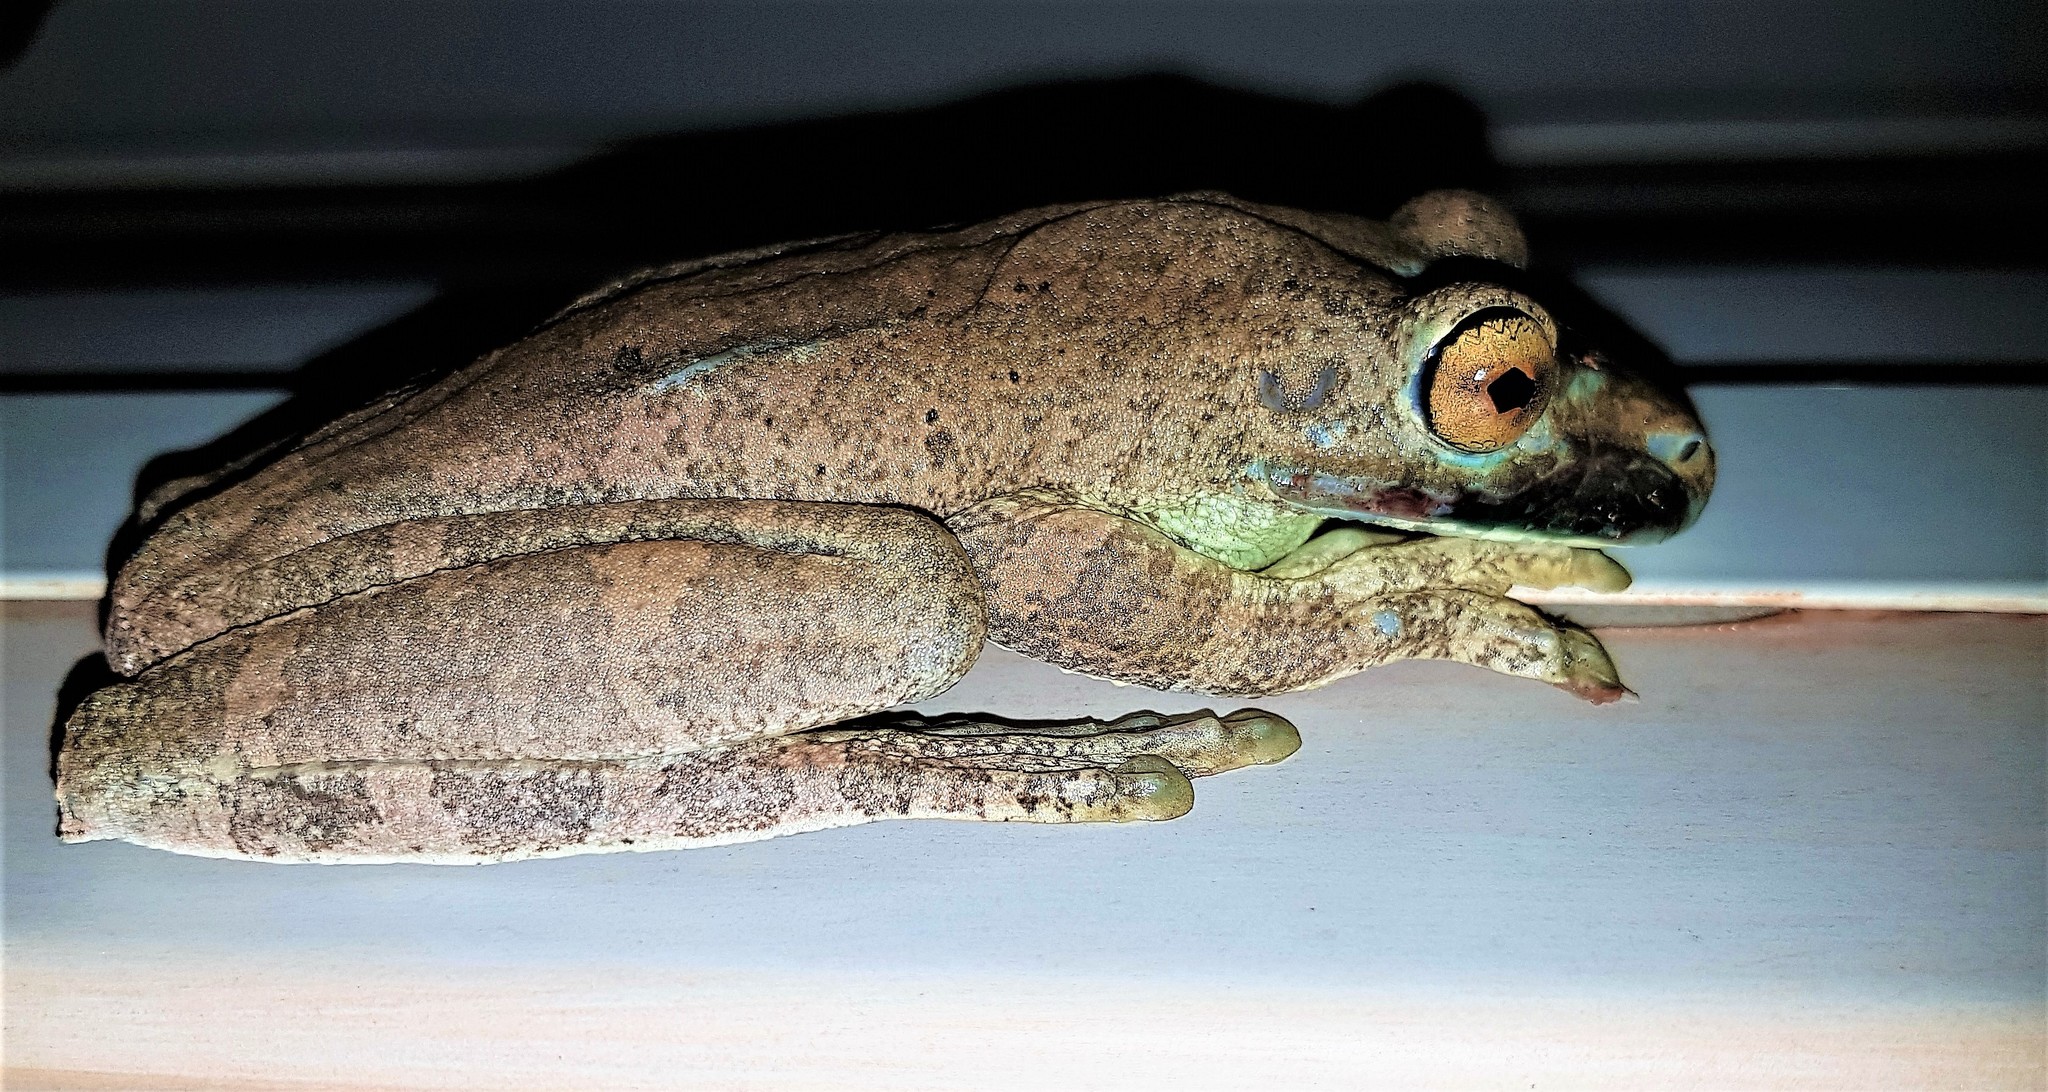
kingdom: Animalia
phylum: Chordata
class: Amphibia
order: Anura
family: Hylidae
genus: Boana
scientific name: Boana boans
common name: Giant gladiator treefrog
